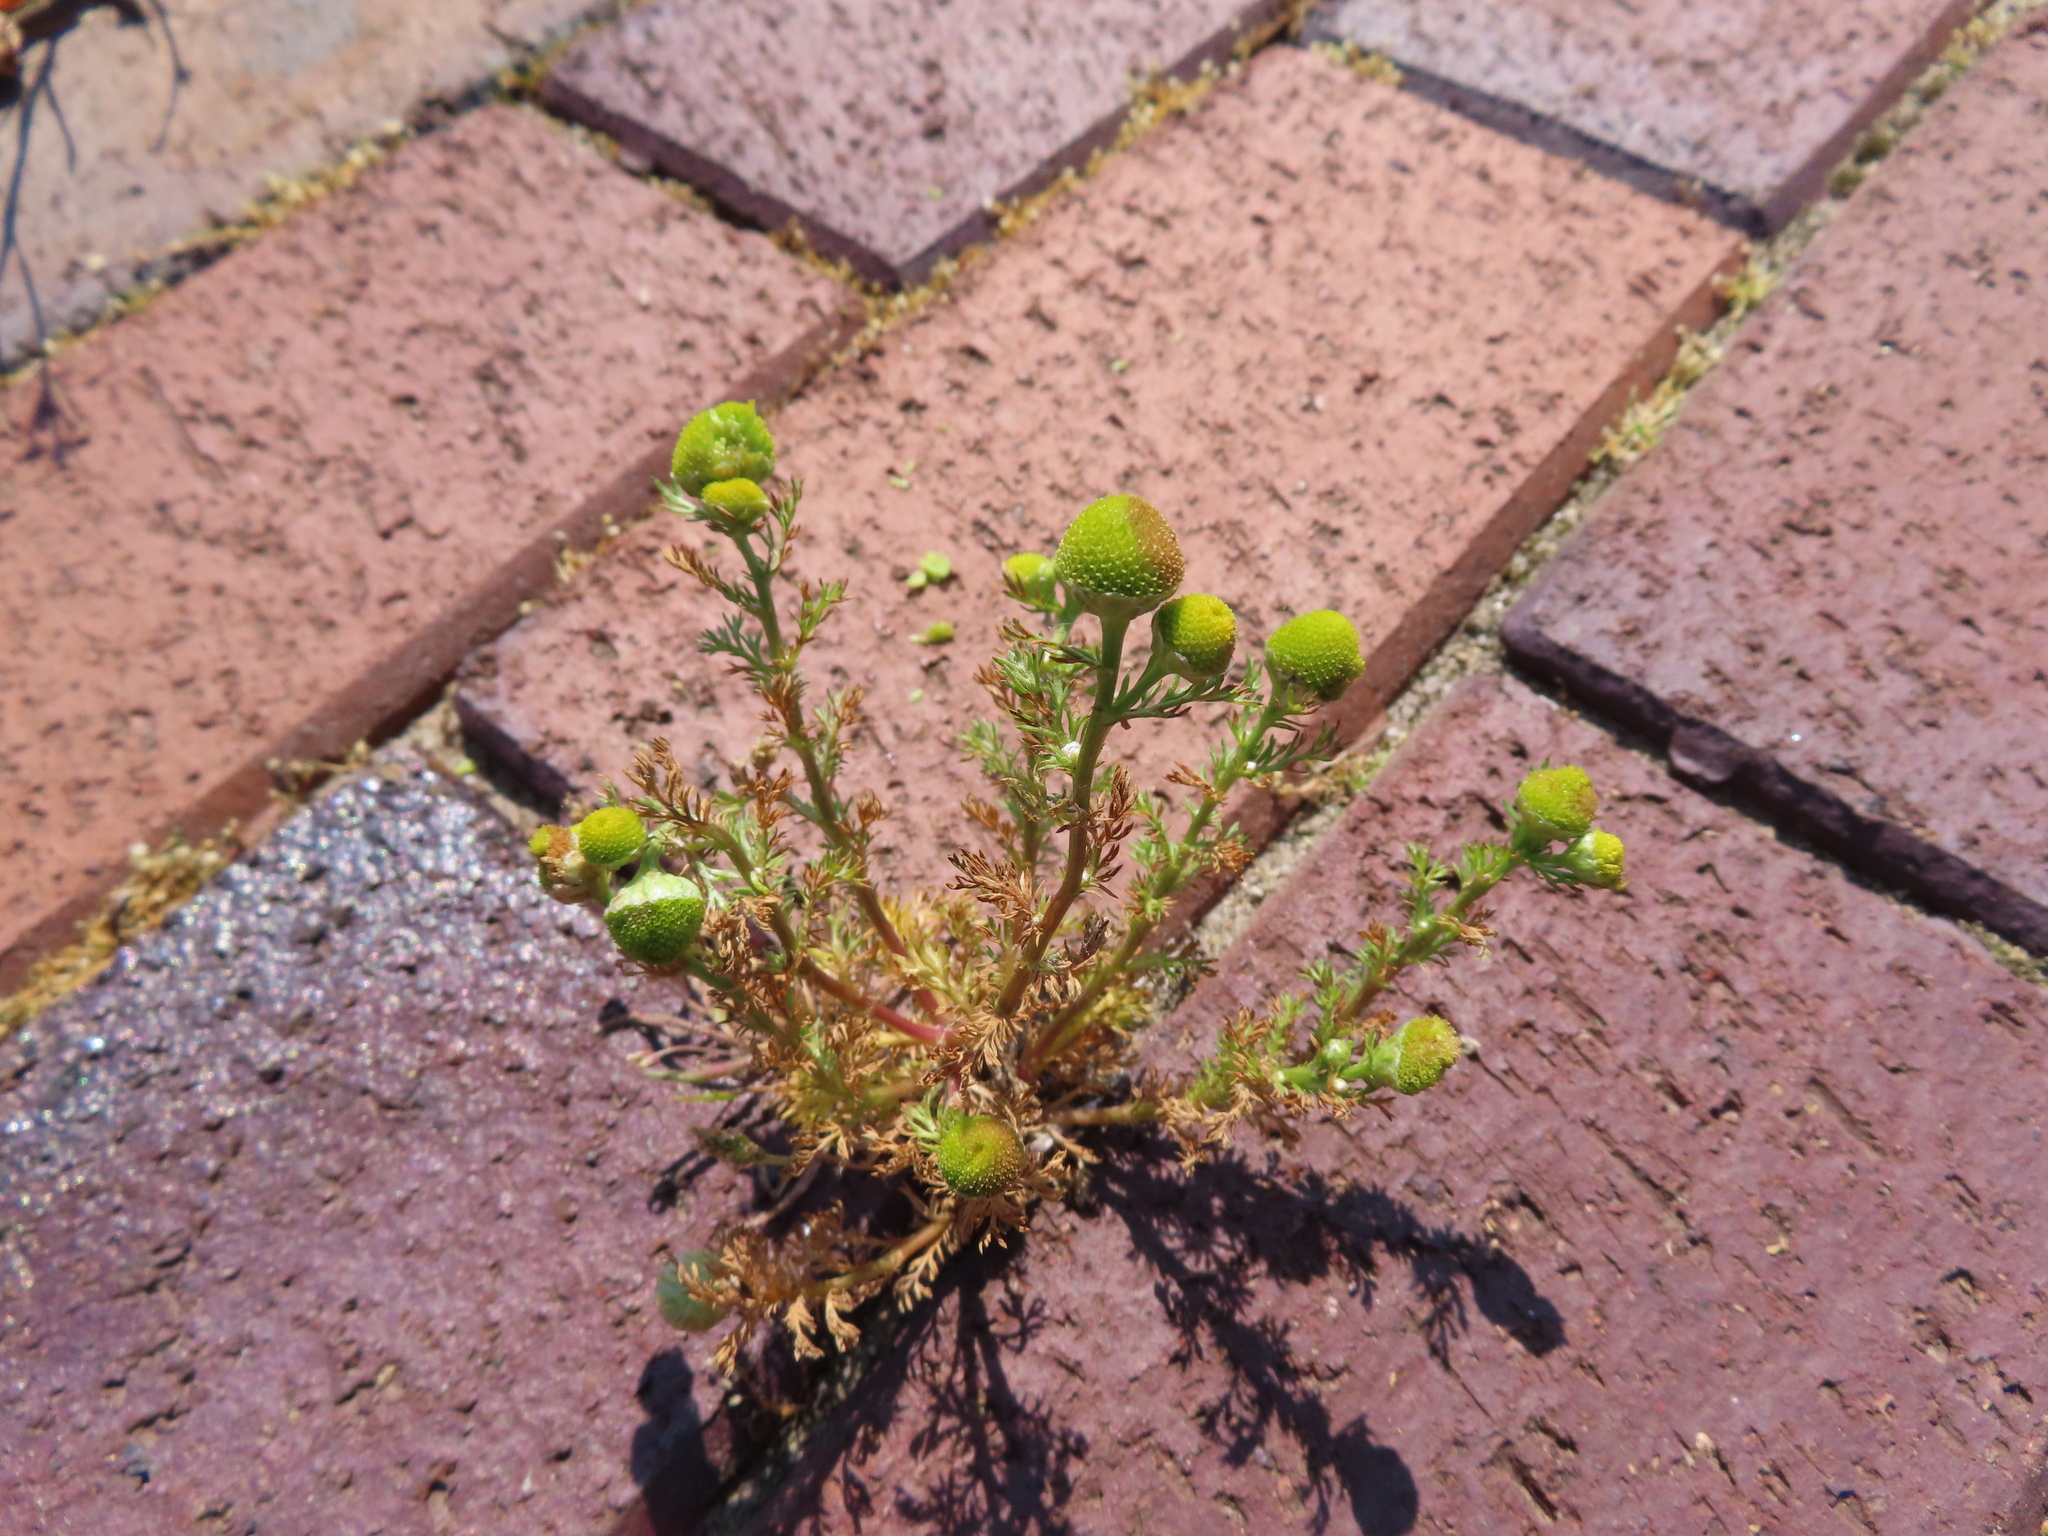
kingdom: Plantae
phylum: Tracheophyta
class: Magnoliopsida
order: Asterales
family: Asteraceae
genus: Matricaria
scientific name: Matricaria discoidea
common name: Disc mayweed
